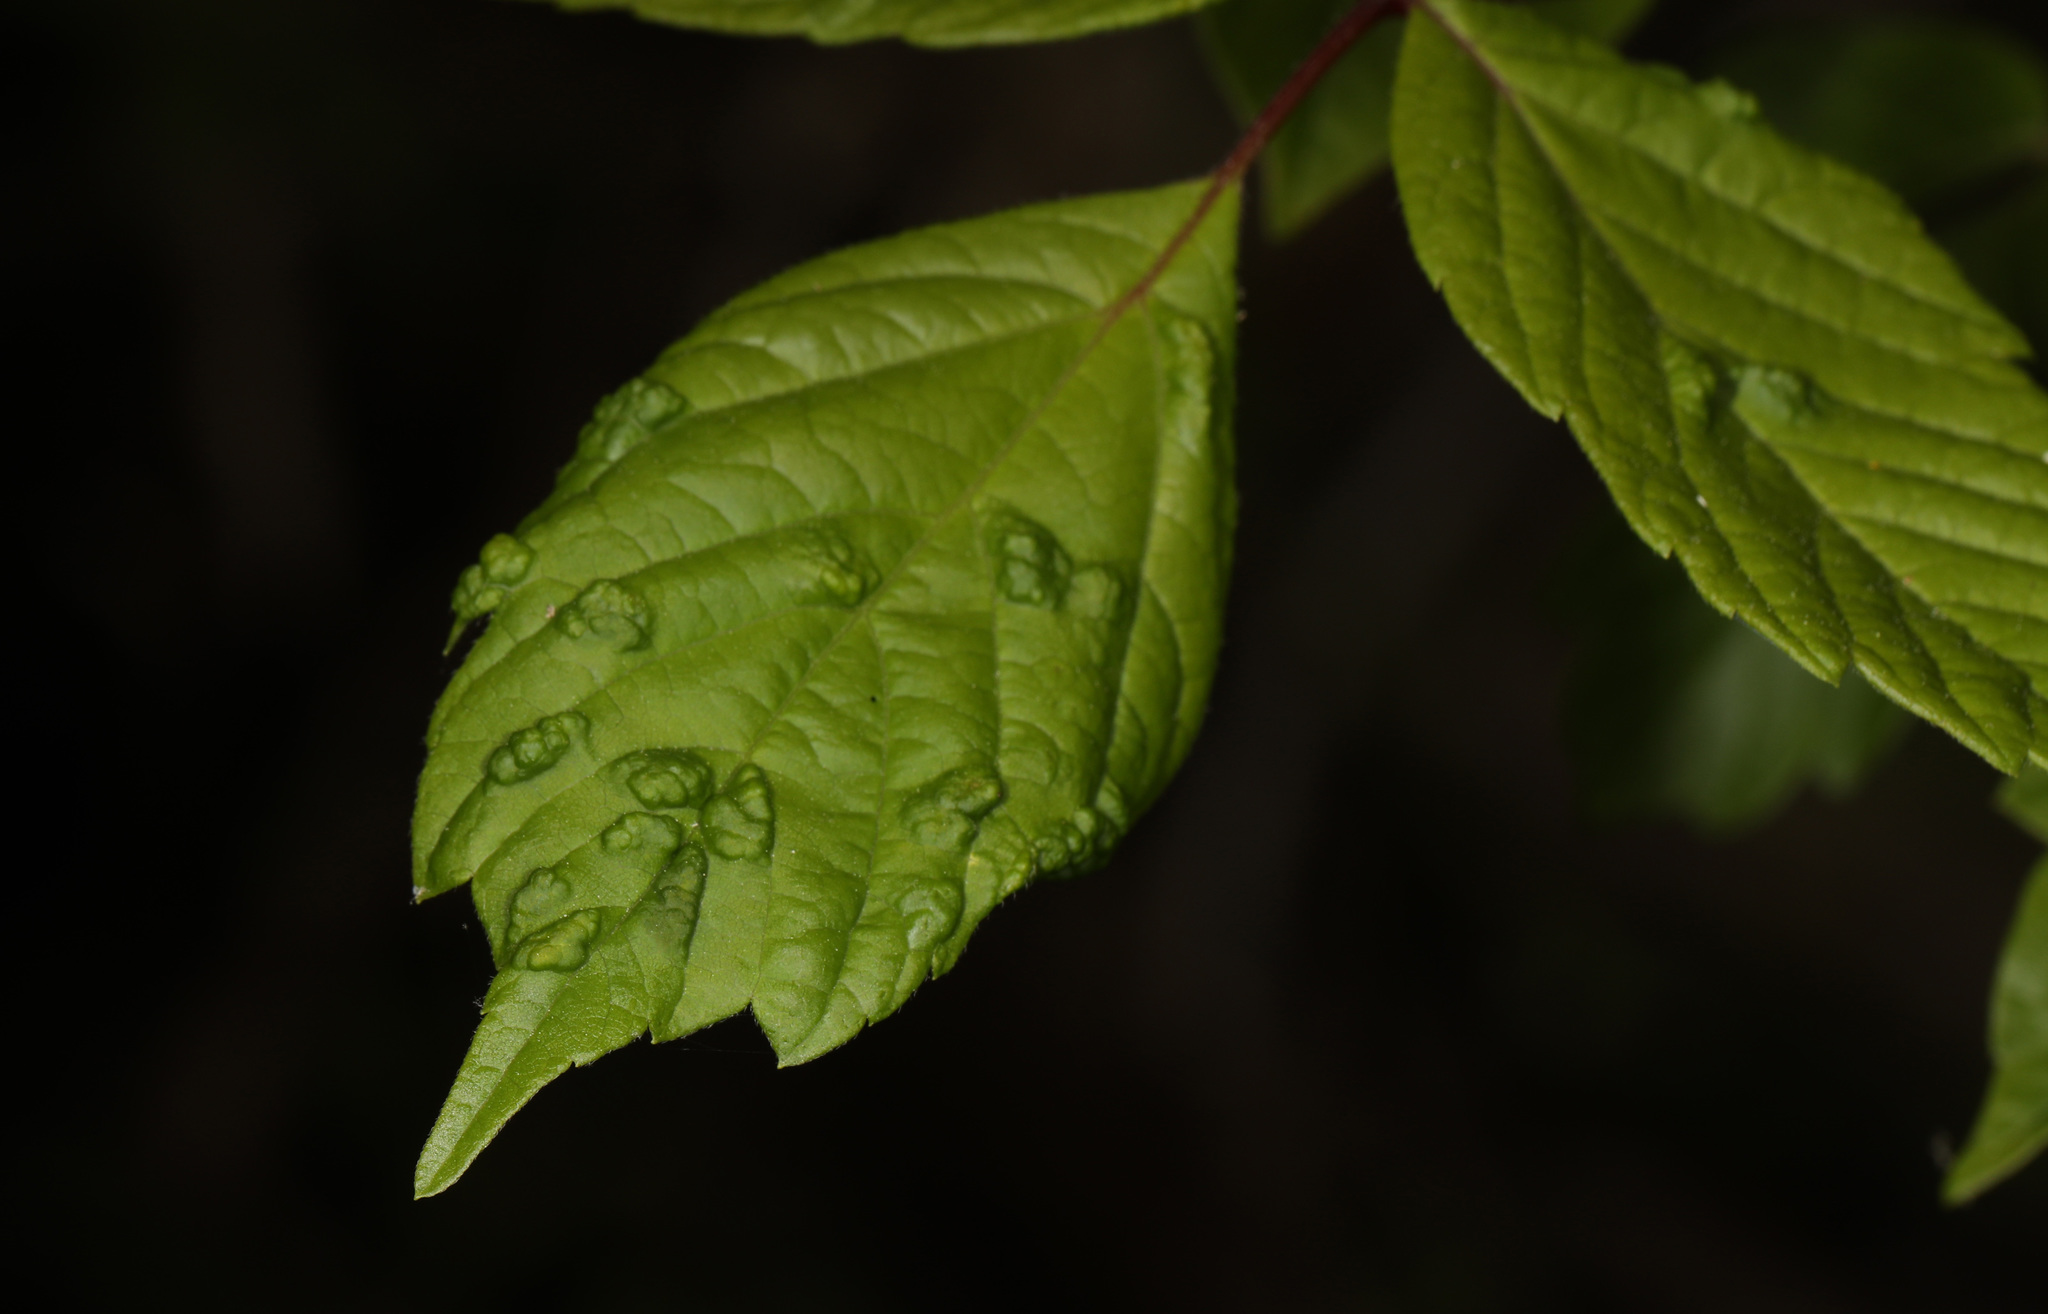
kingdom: Animalia
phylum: Arthropoda
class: Arachnida
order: Trombidiformes
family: Eriophyidae
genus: Aceria
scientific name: Aceria
